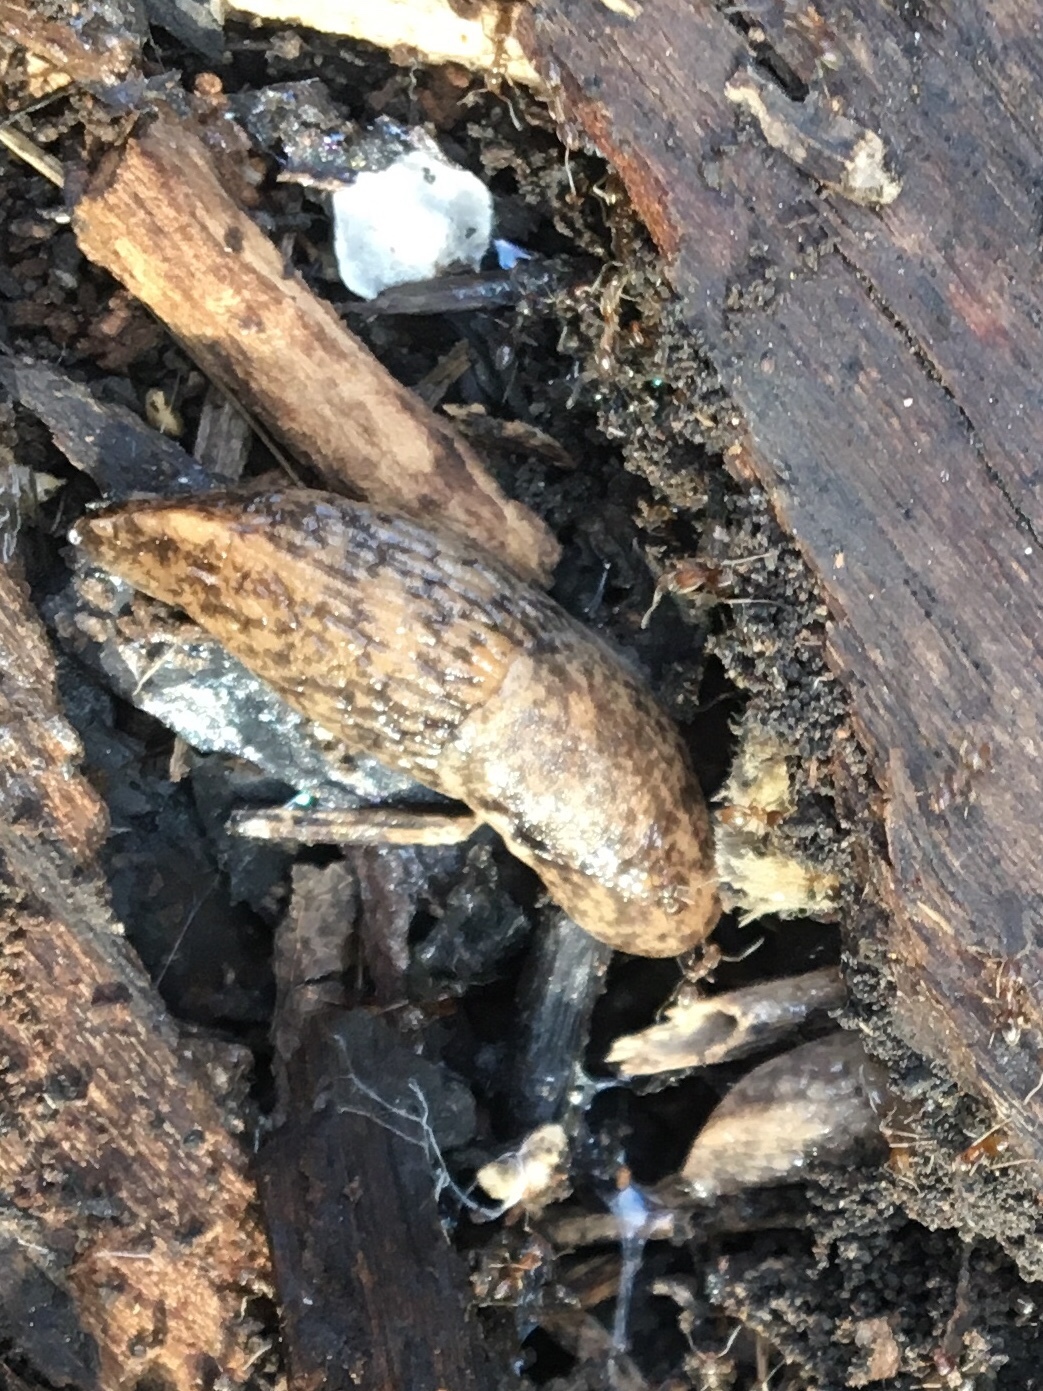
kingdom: Animalia
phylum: Mollusca
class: Gastropoda
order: Stylommatophora
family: Agriolimacidae
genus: Deroceras
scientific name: Deroceras reticulatum
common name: Gray field slug
